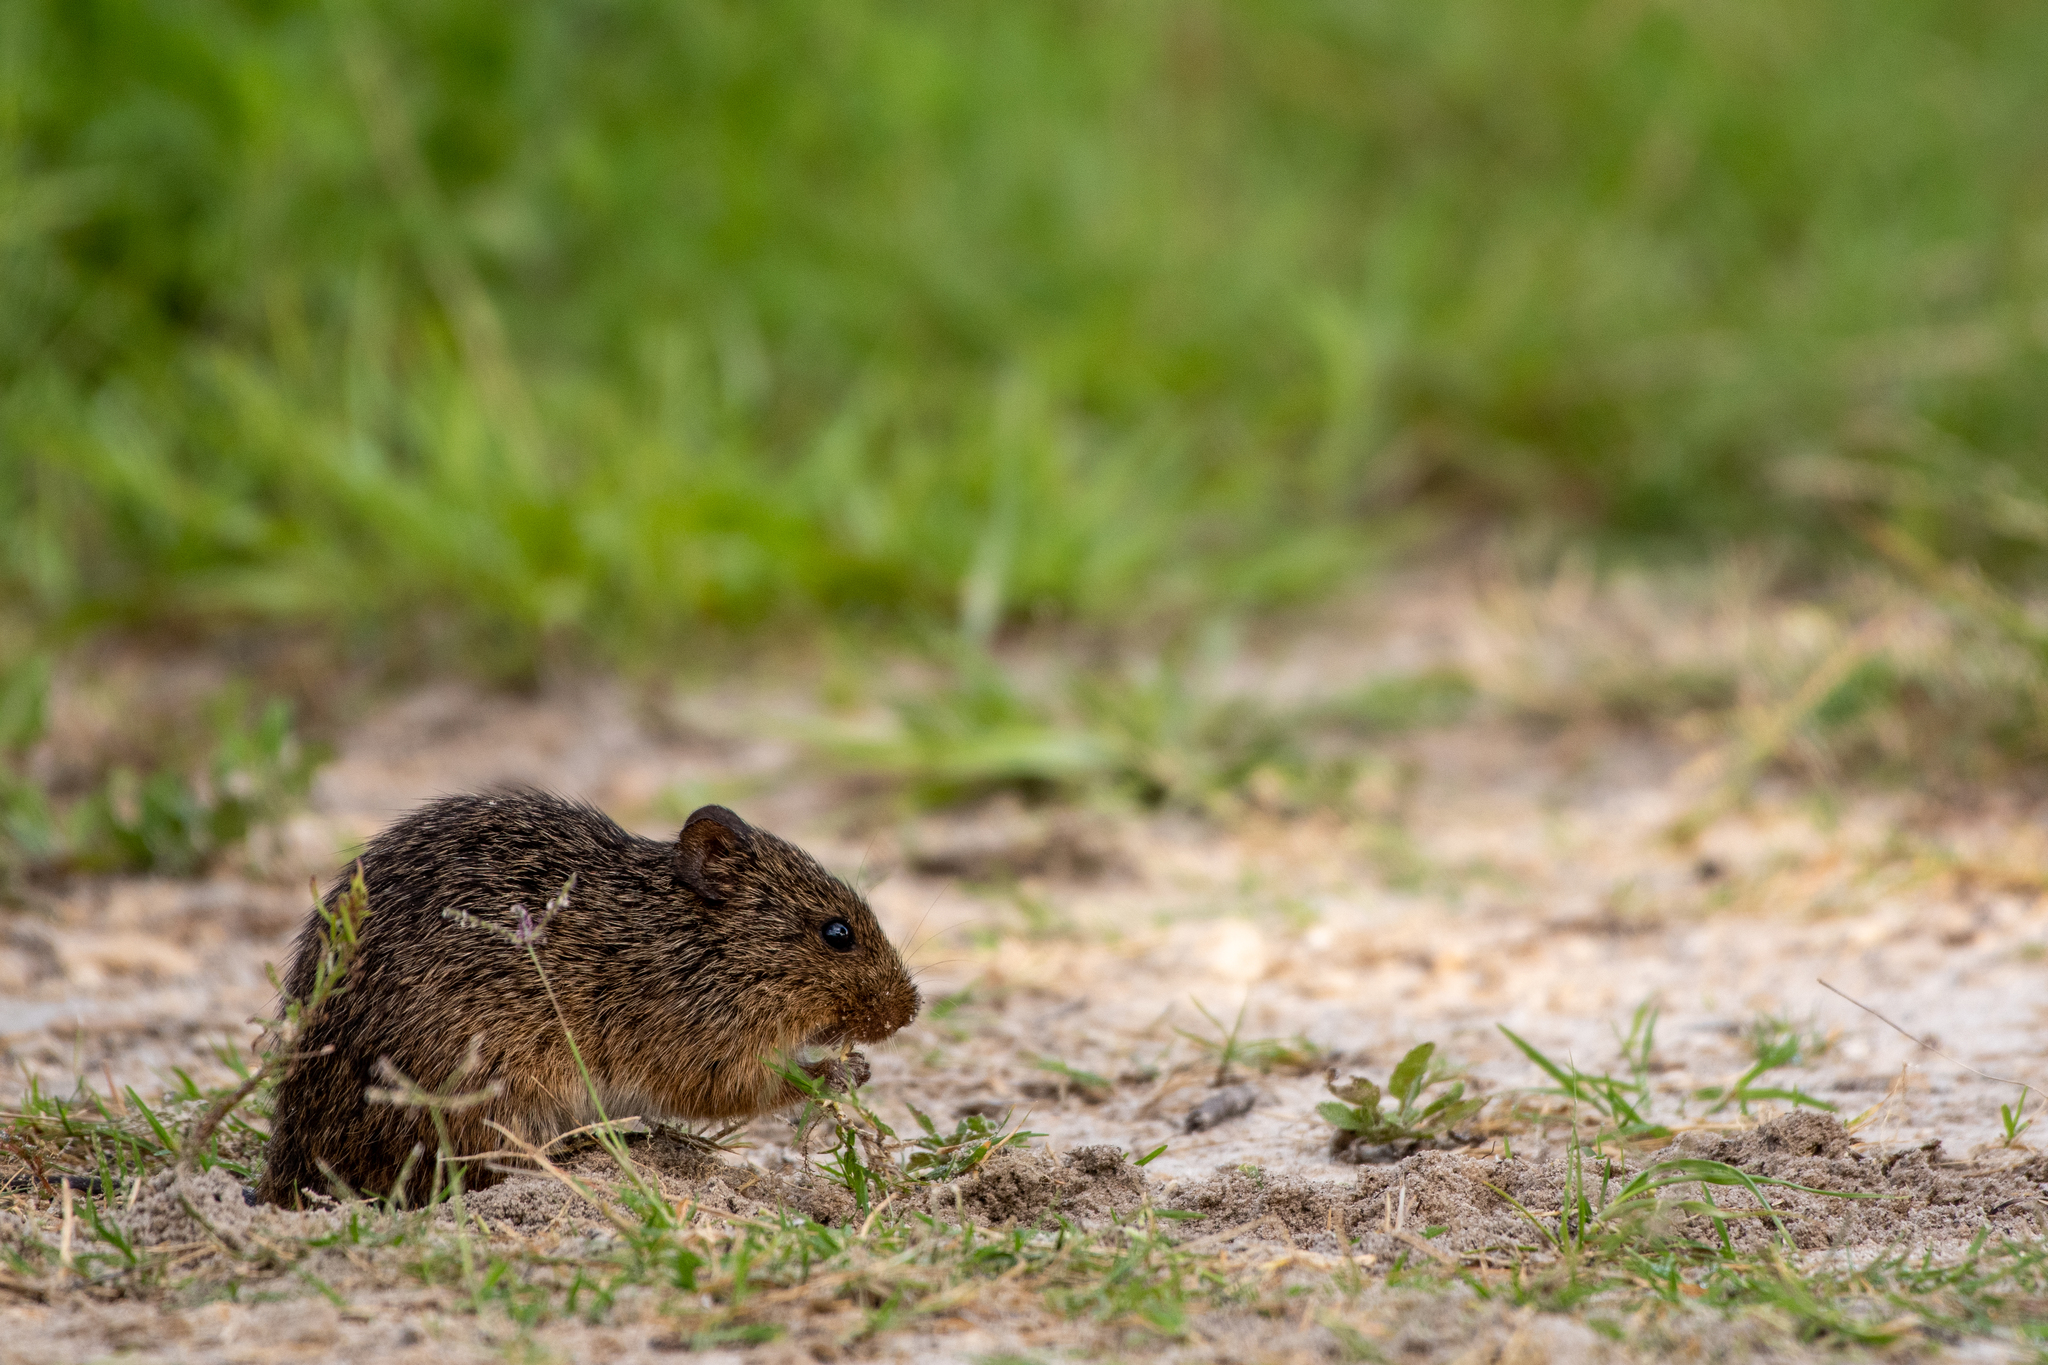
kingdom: Animalia
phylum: Chordata
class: Mammalia
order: Rodentia
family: Cricetidae
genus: Sigmodon
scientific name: Sigmodon hispidus
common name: Hispid cotton rat
